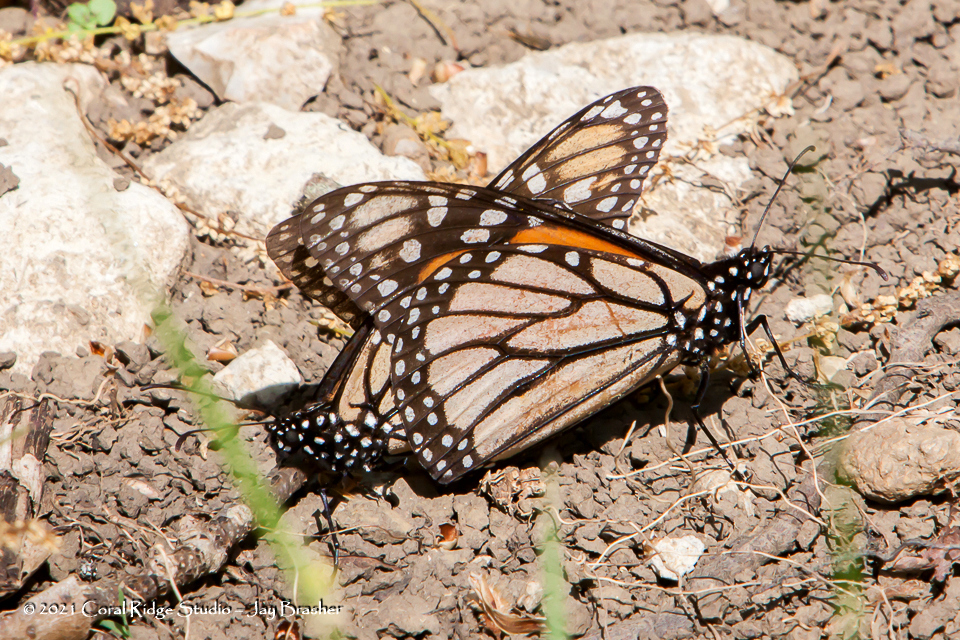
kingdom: Animalia
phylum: Arthropoda
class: Insecta
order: Lepidoptera
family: Nymphalidae
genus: Danaus
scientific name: Danaus plexippus
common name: Monarch
